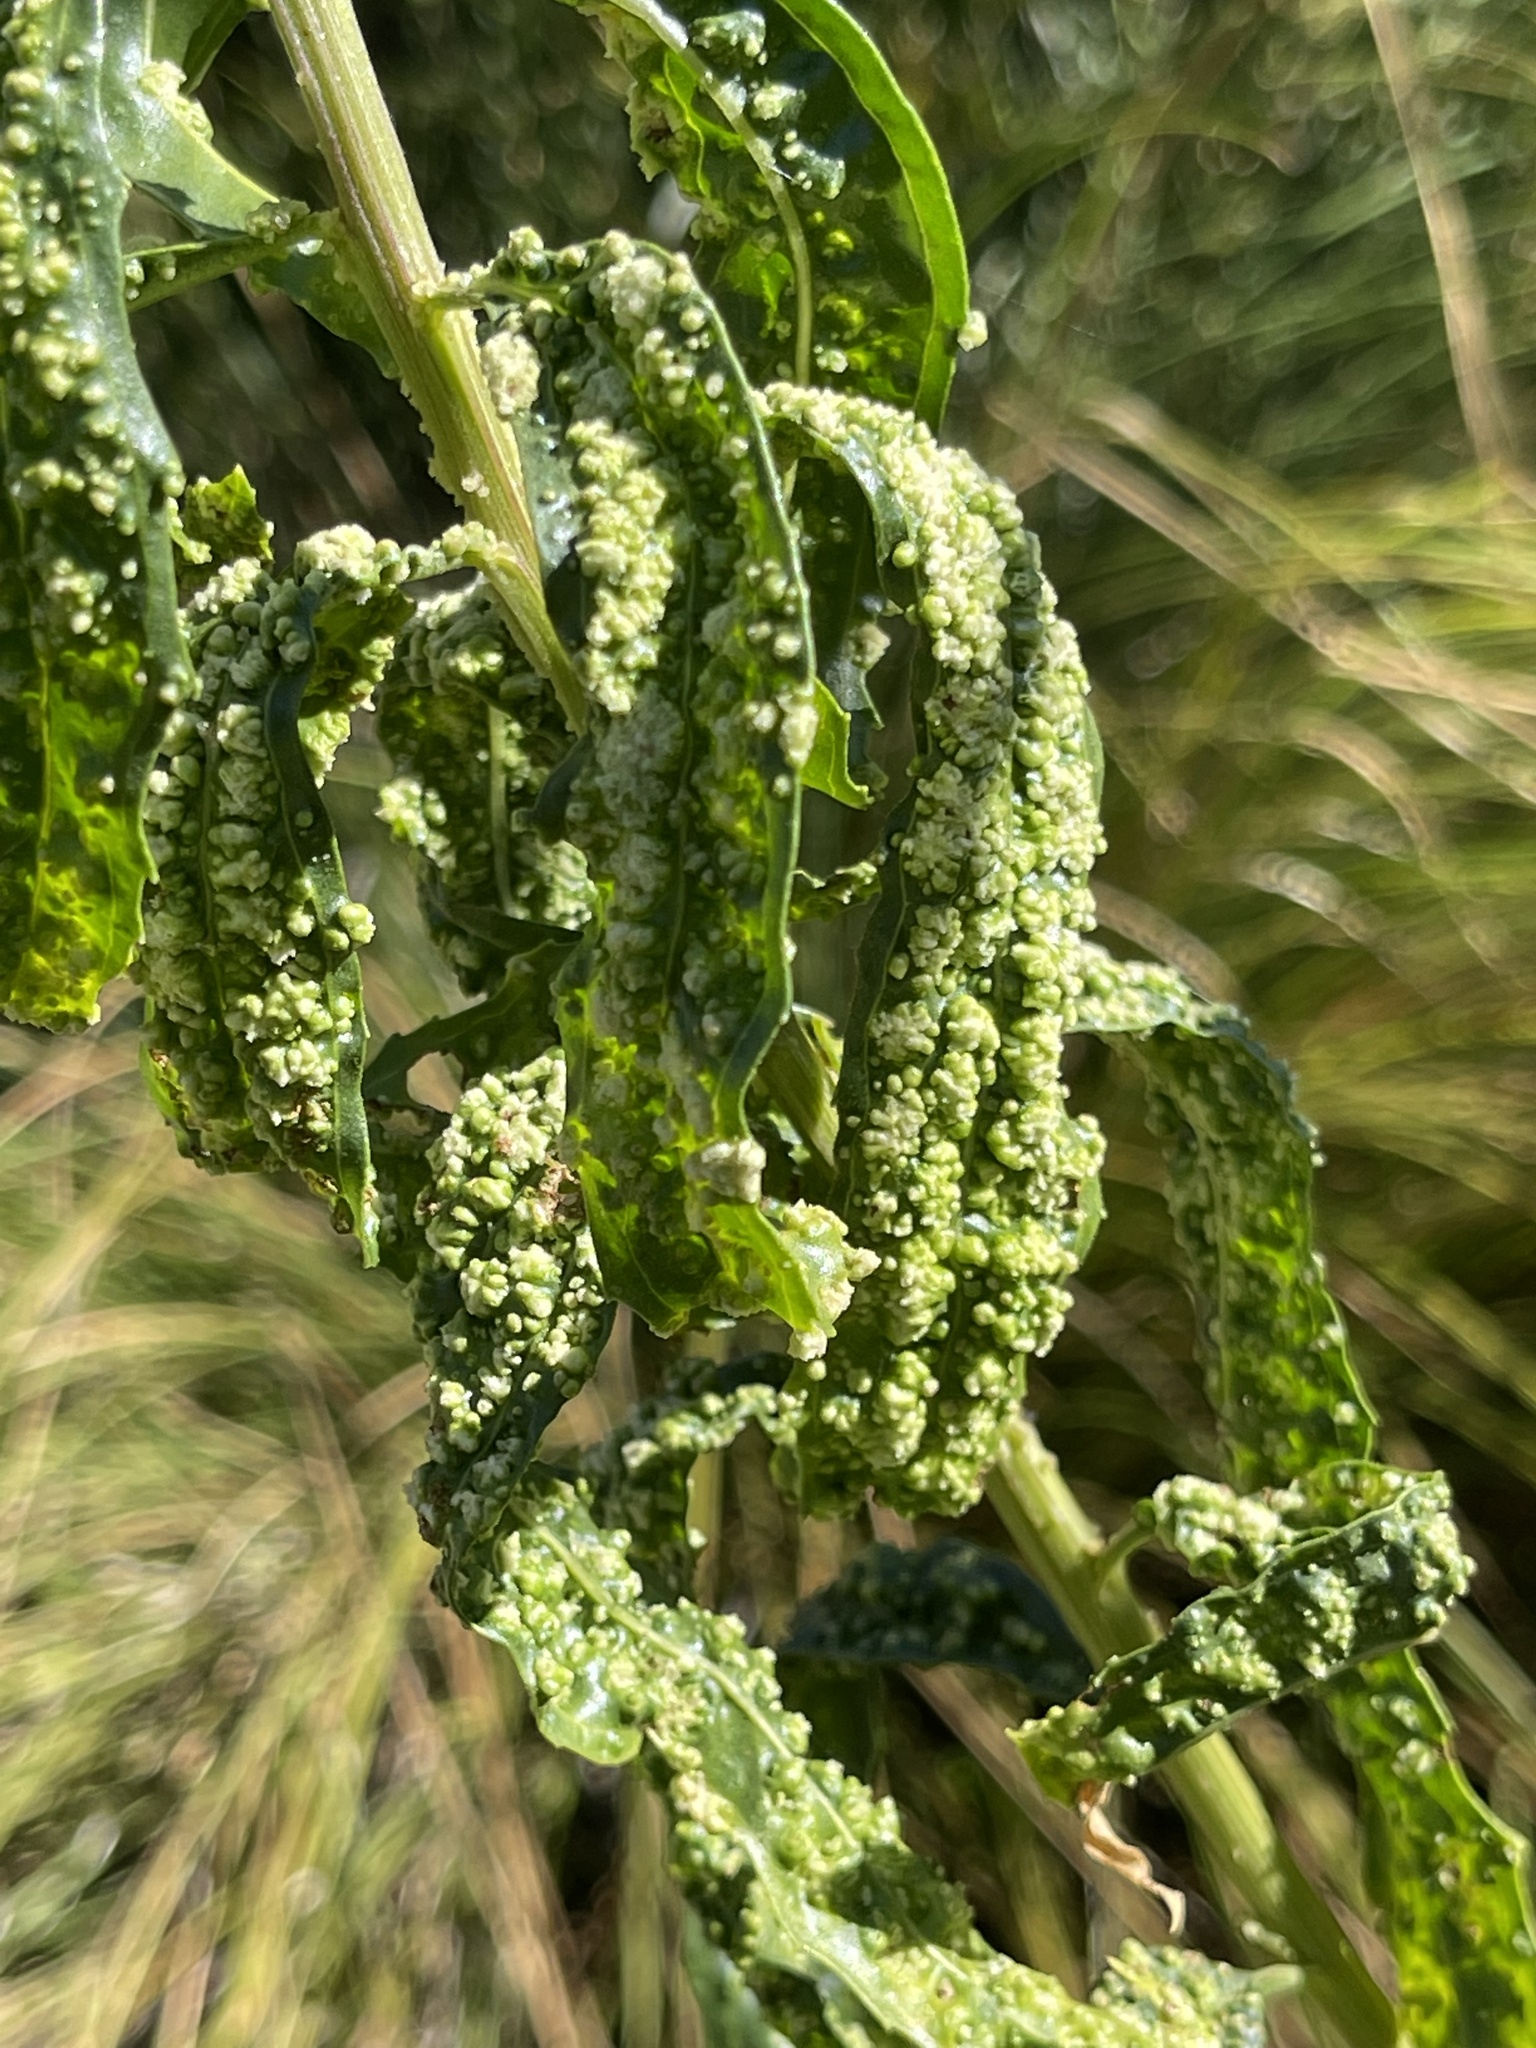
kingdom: Animalia
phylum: Arthropoda
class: Arachnida
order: Trombidiformes
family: Eriophyidae
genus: Aceria
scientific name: Aceria
